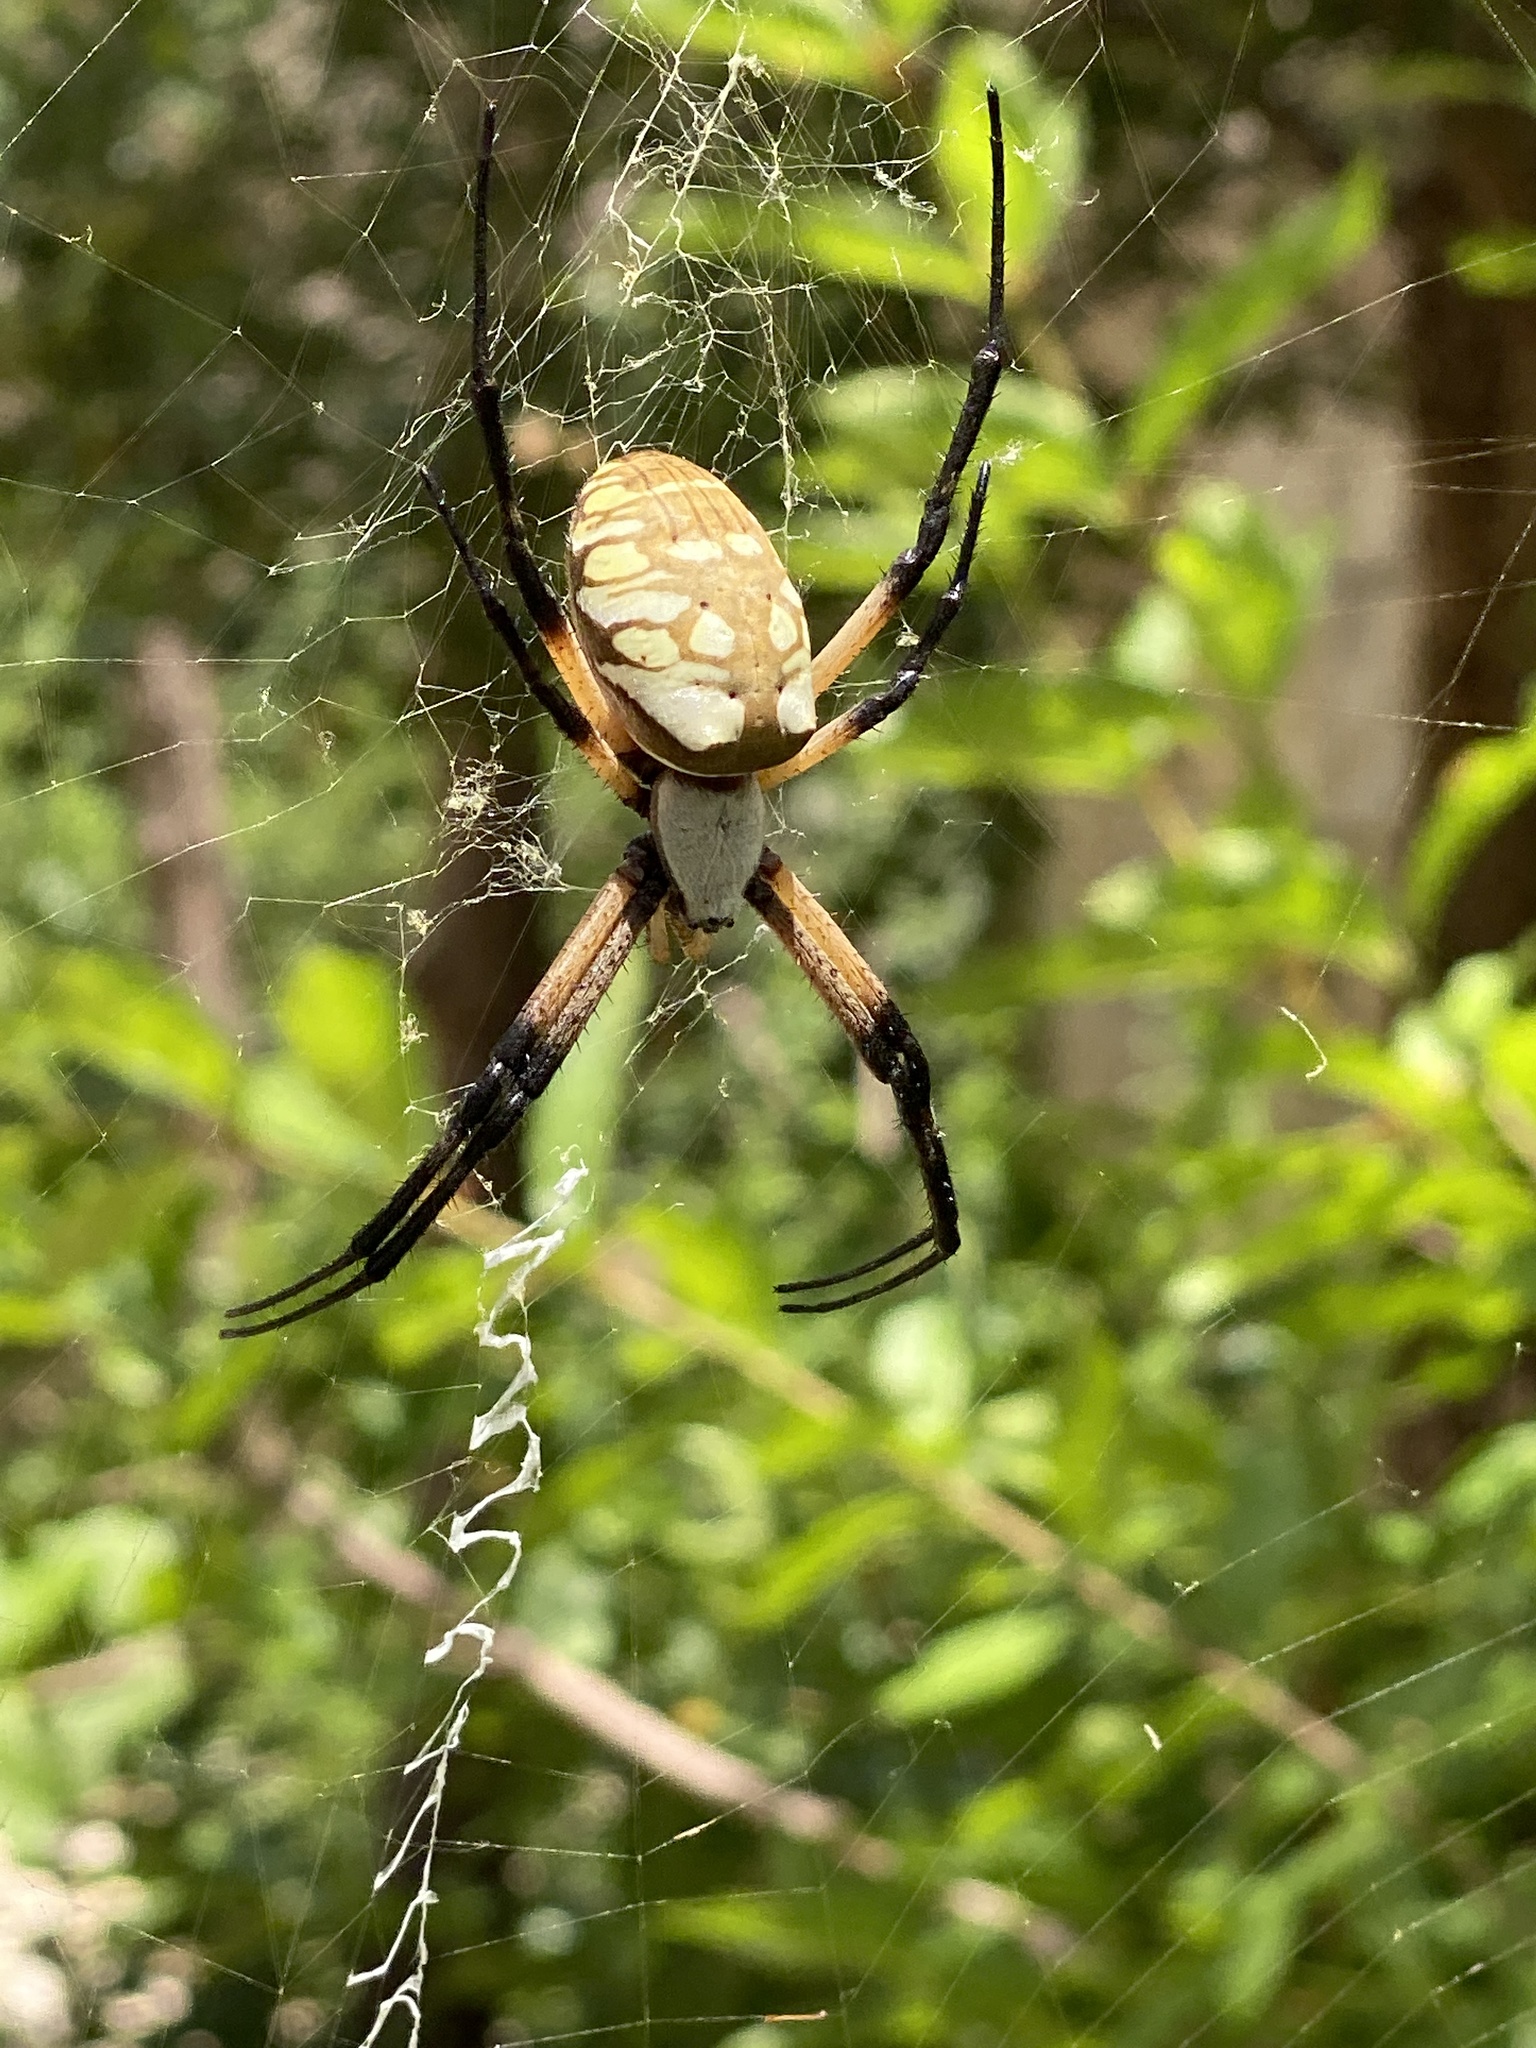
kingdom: Animalia
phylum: Arthropoda
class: Arachnida
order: Araneae
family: Araneidae
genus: Argiope
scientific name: Argiope aurantia
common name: Orb weavers
